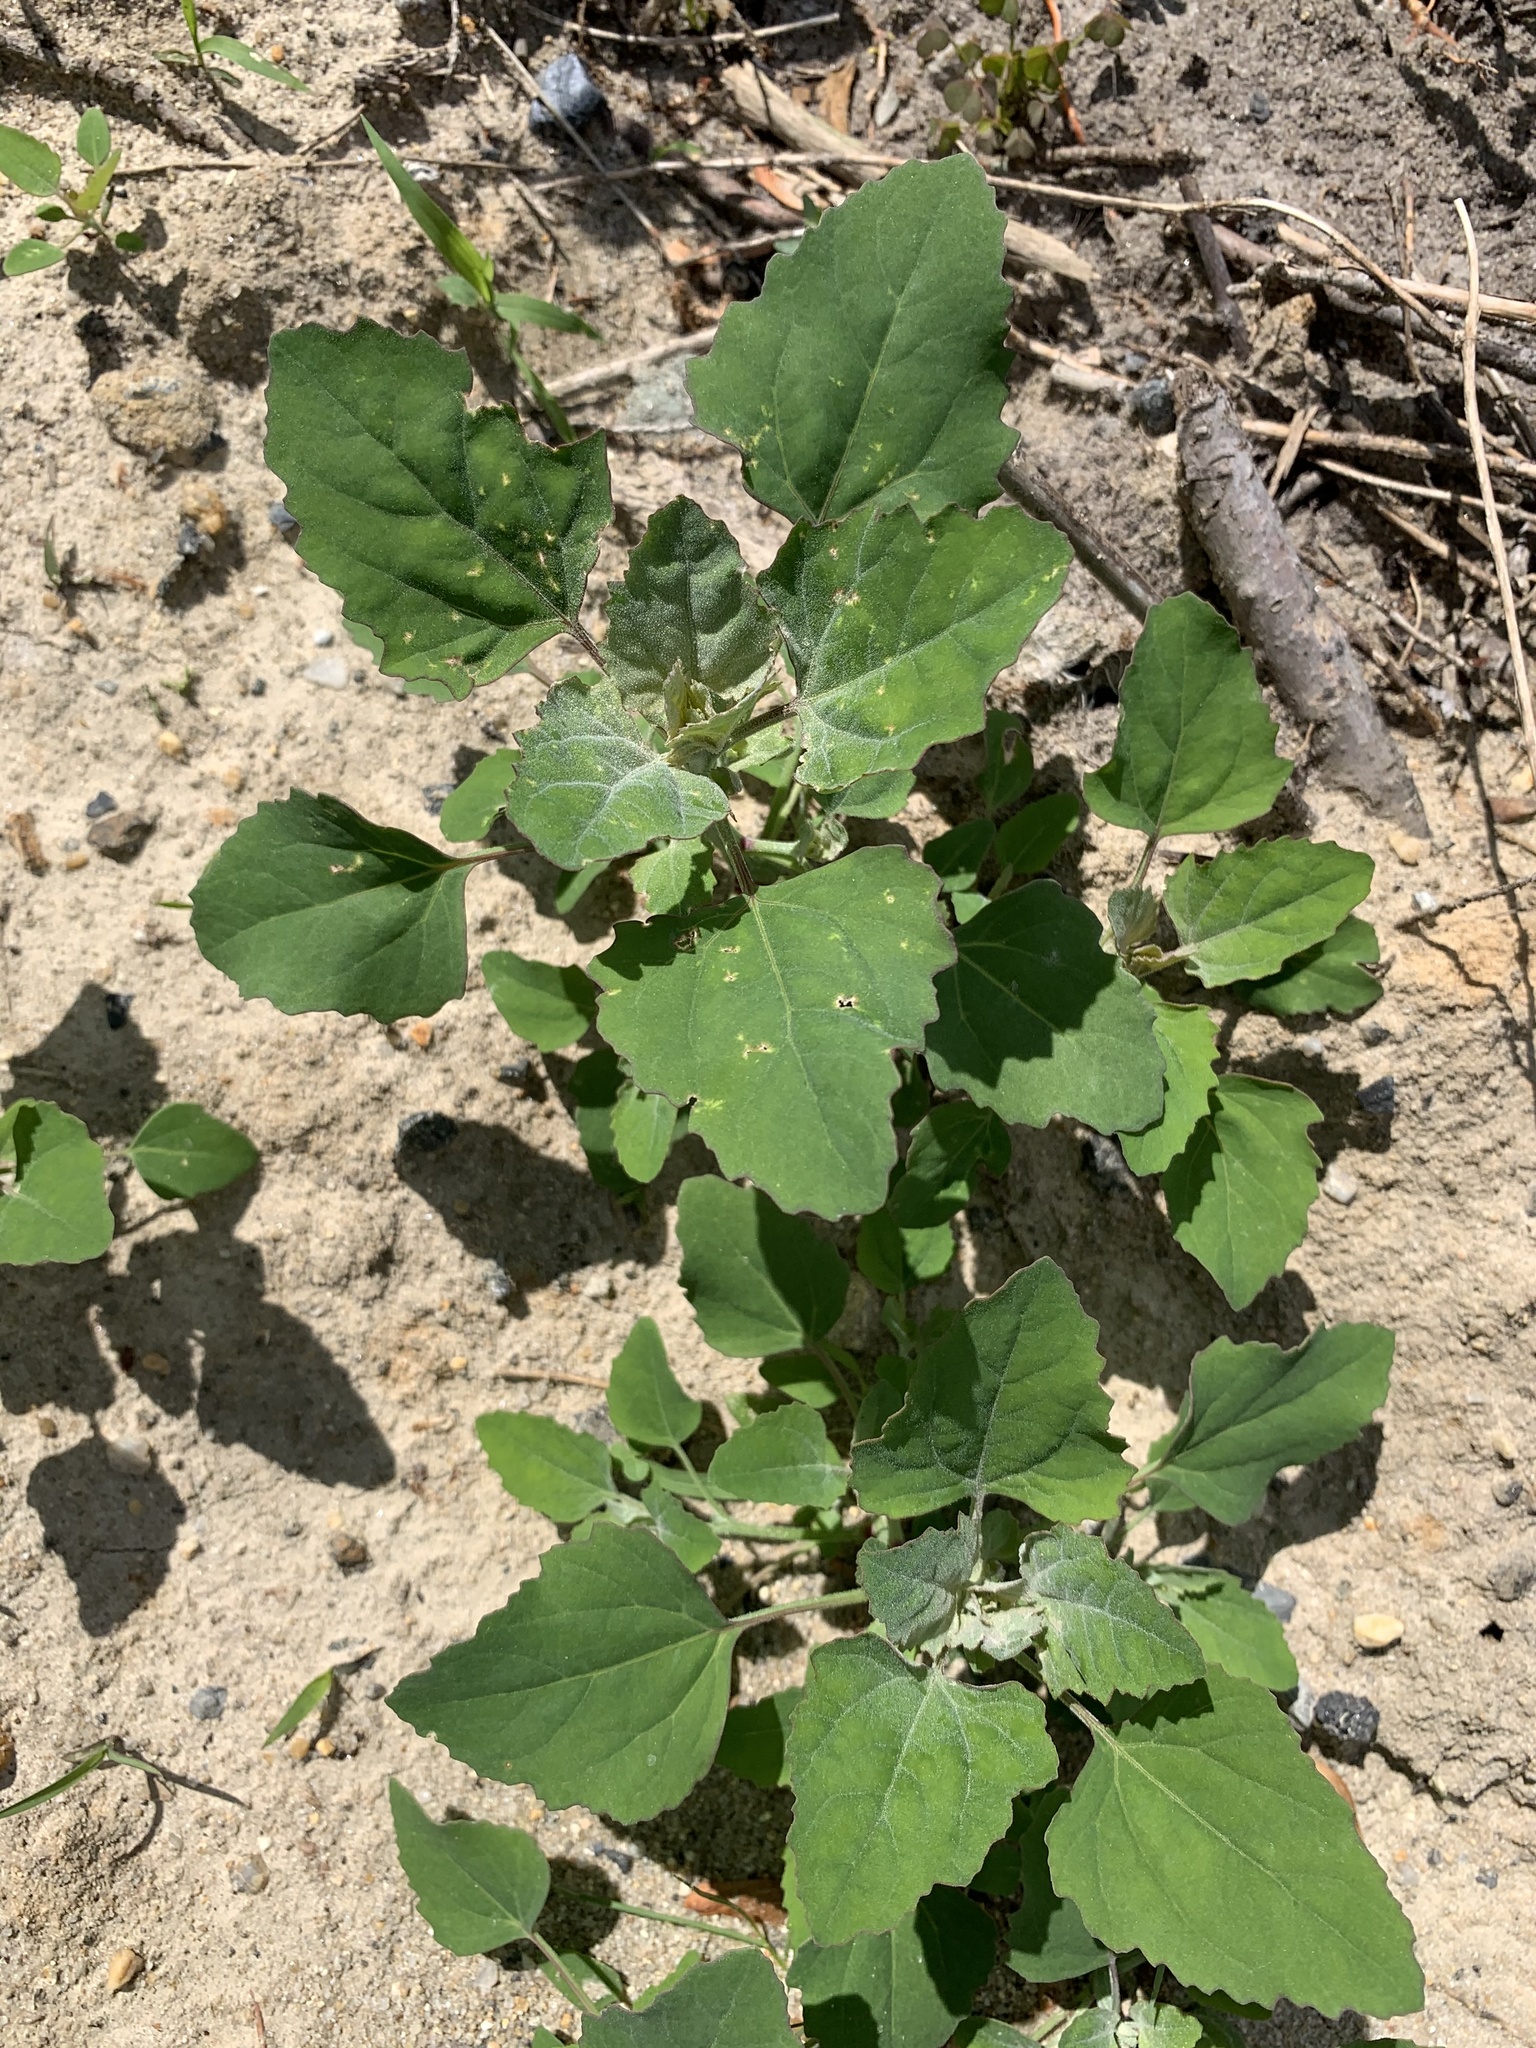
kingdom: Plantae
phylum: Tracheophyta
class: Magnoliopsida
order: Caryophyllales
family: Amaranthaceae
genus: Chenopodium
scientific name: Chenopodium album
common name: Fat-hen
